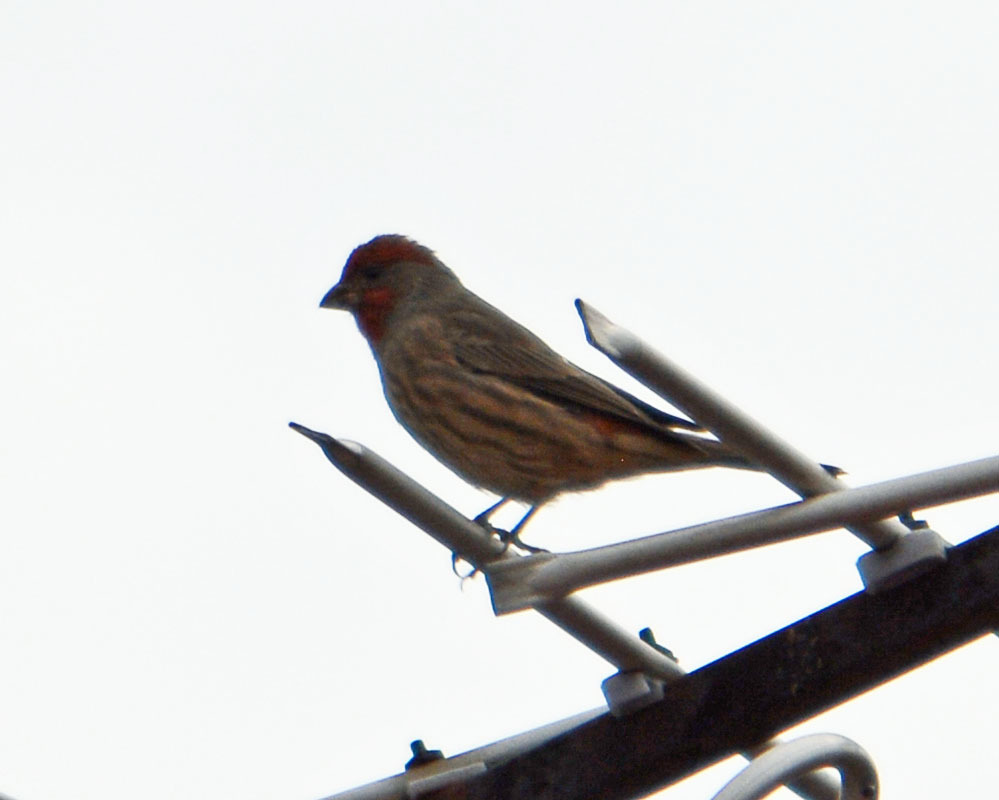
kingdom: Animalia
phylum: Chordata
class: Aves
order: Passeriformes
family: Fringillidae
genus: Haemorhous
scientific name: Haemorhous mexicanus
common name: House finch
